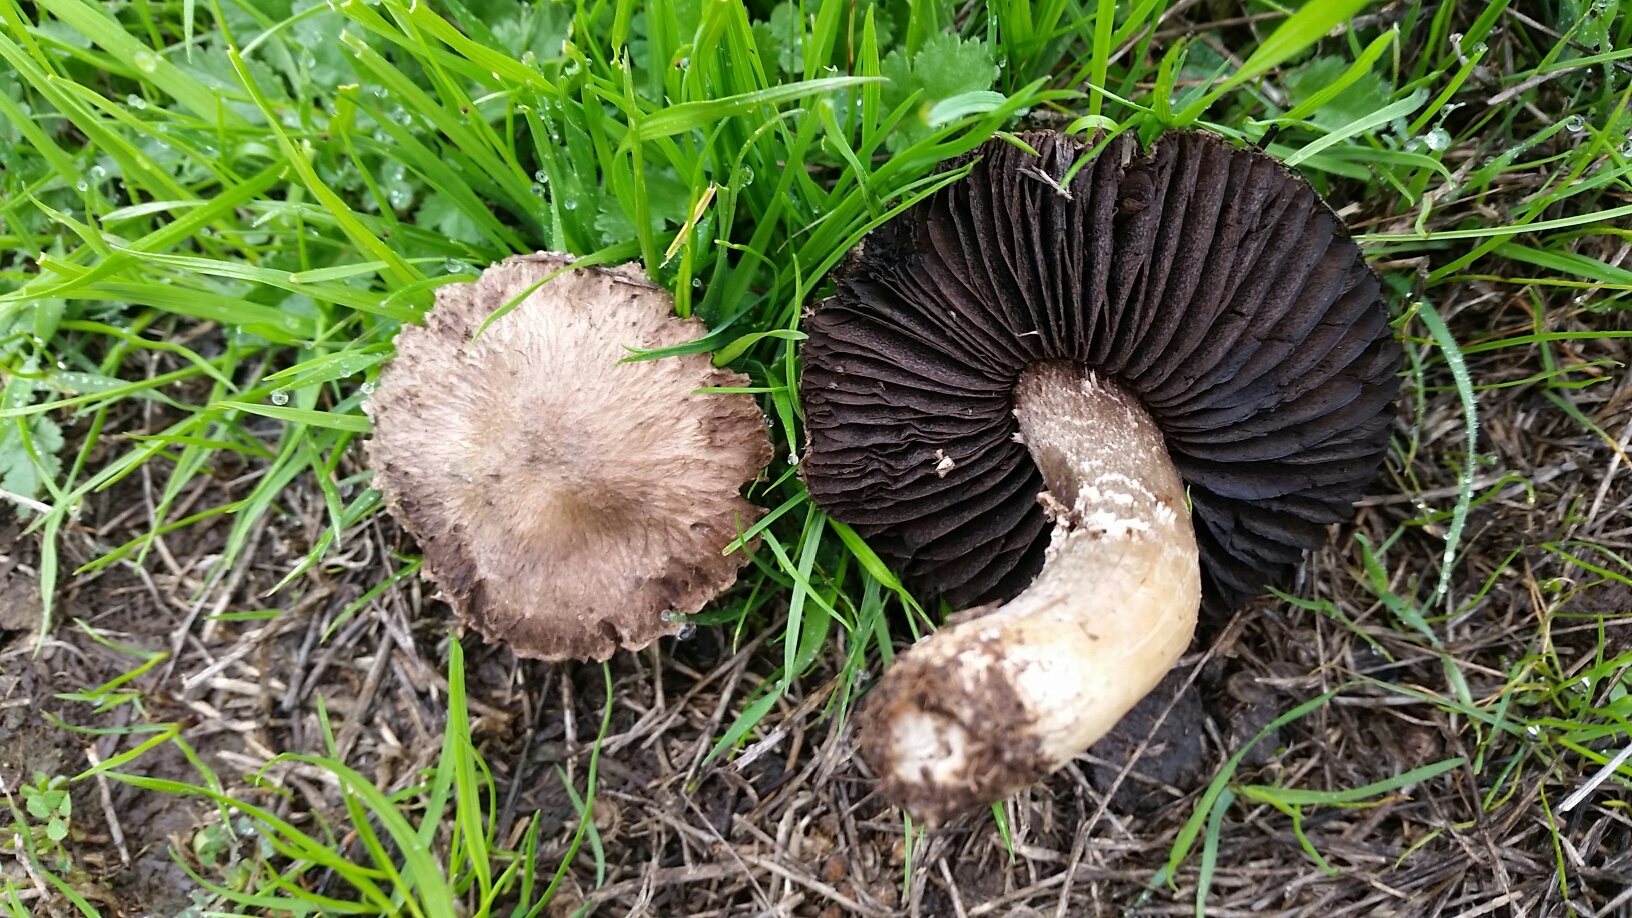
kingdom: Fungi
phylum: Basidiomycota
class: Agaricomycetes
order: Agaricales
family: Agaricaceae
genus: Agaricus
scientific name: Agaricus incultorum
